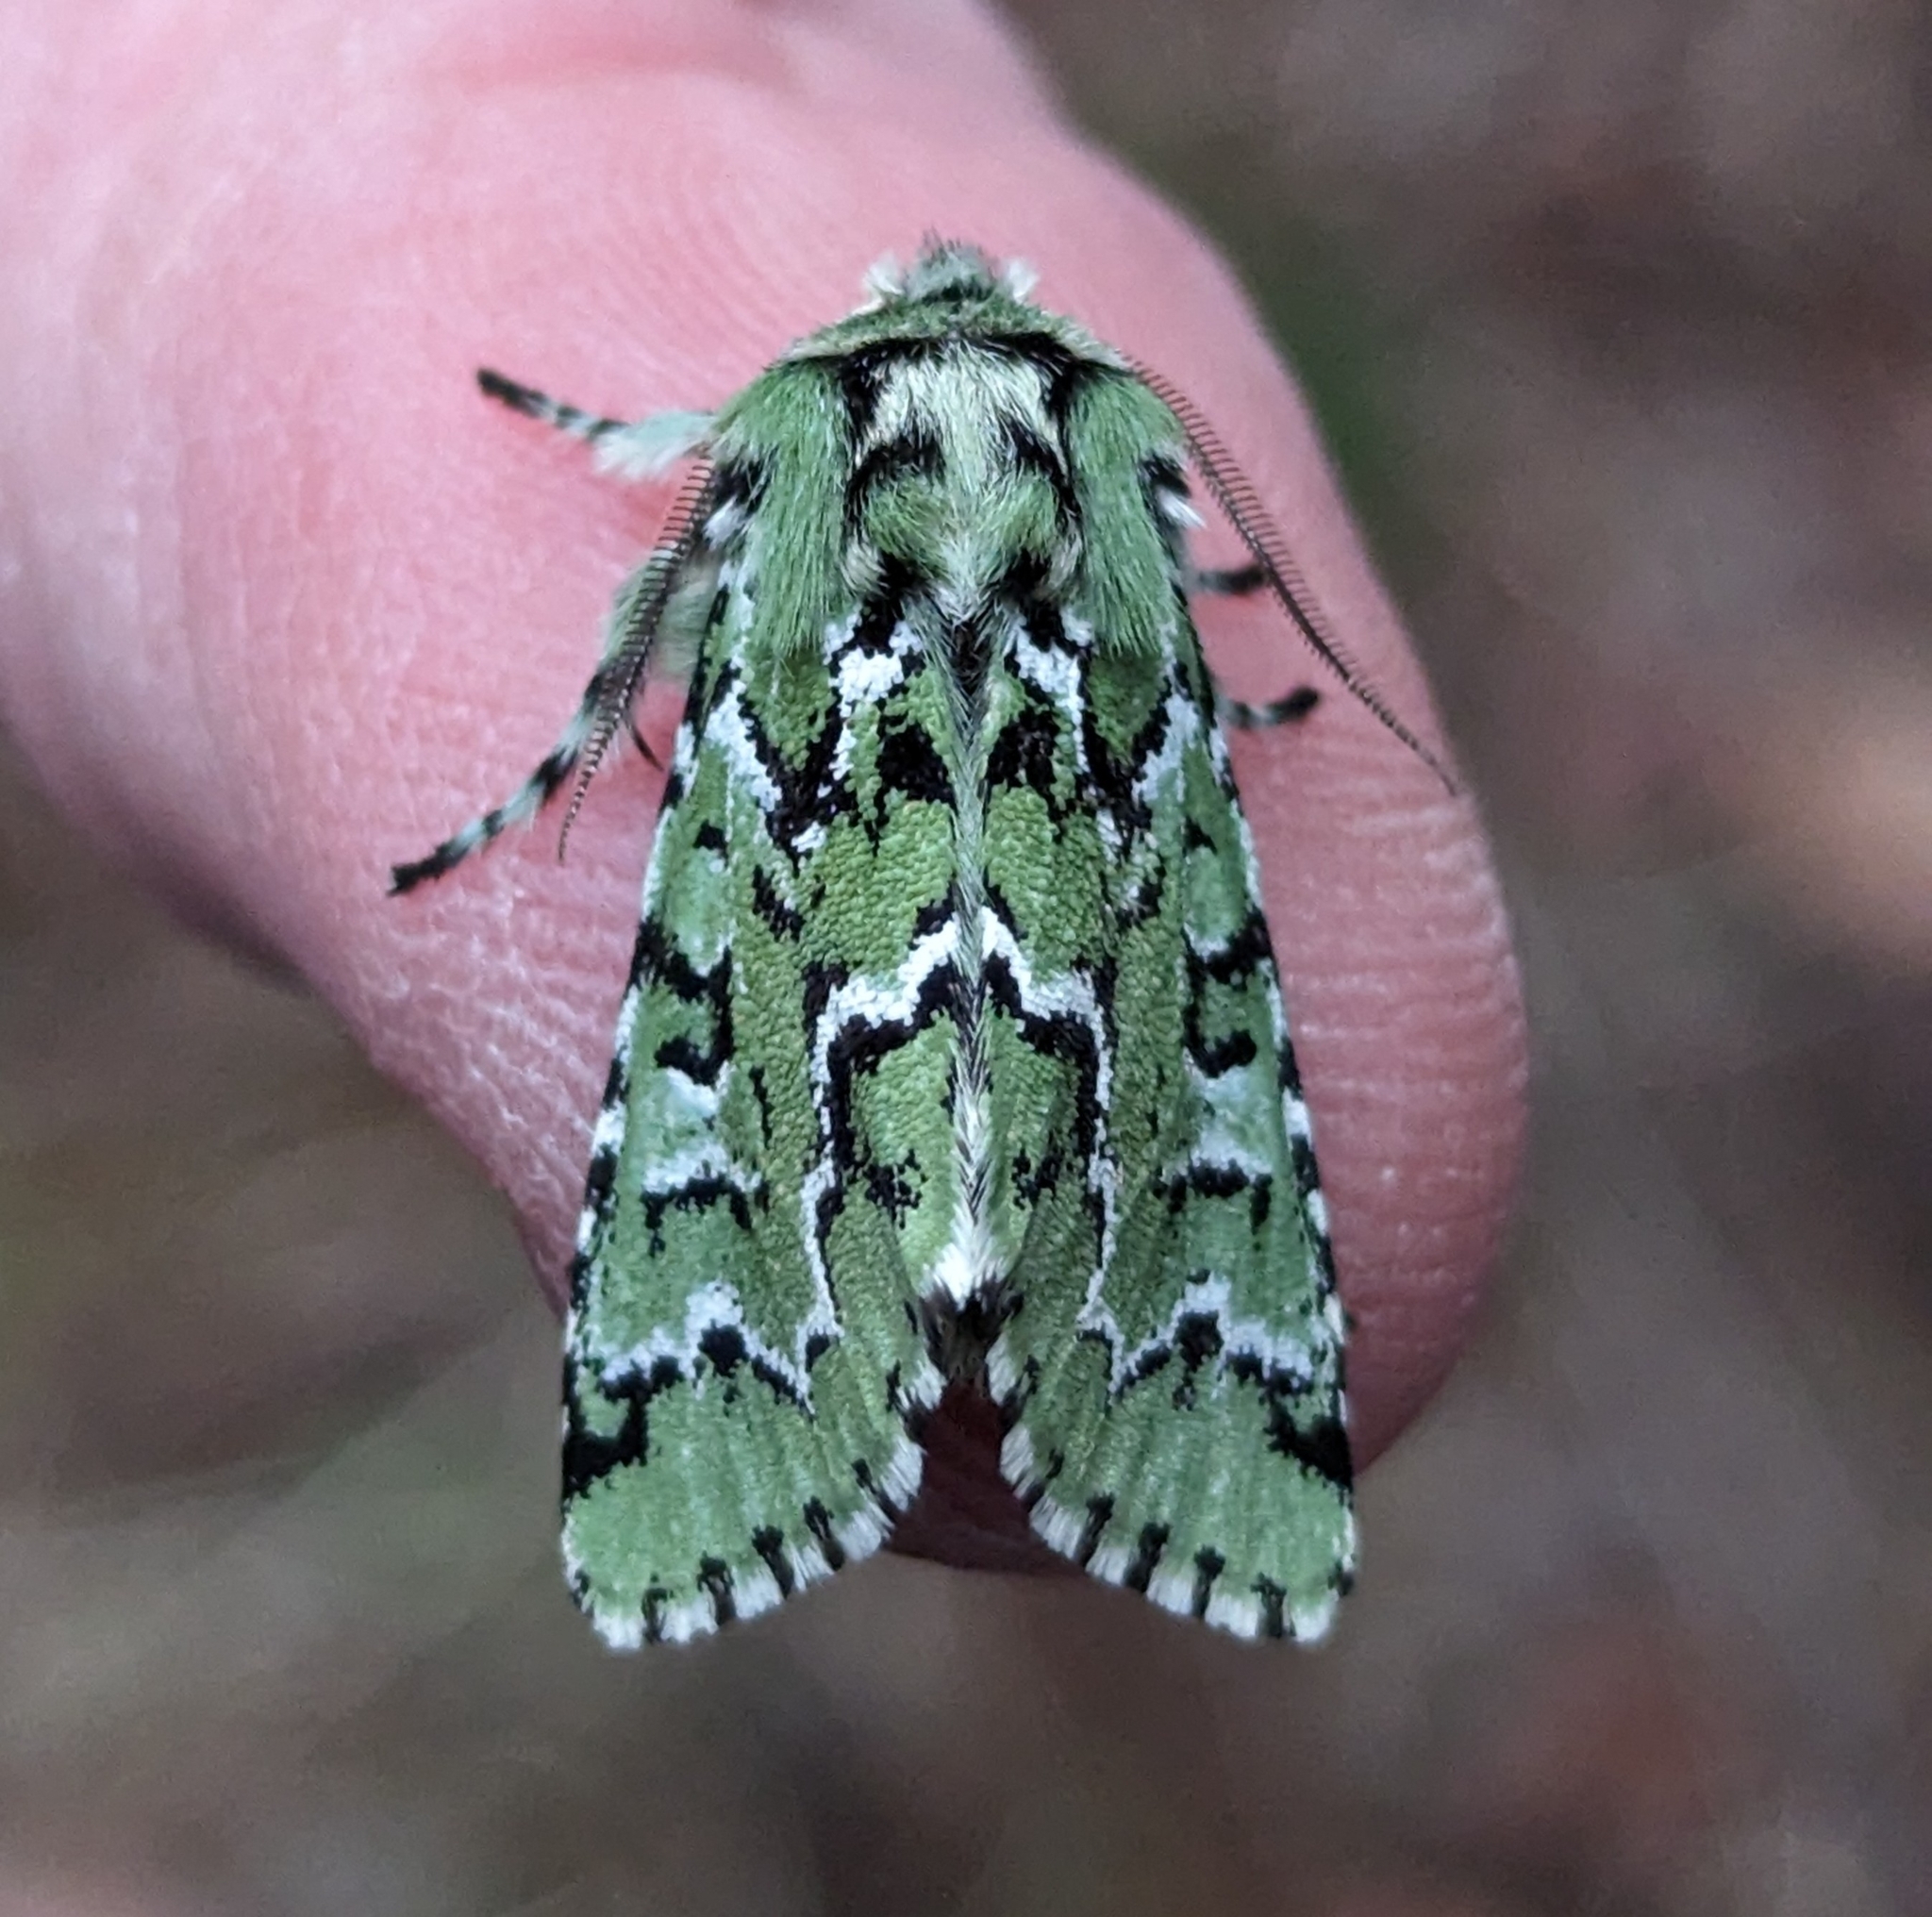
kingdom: Animalia
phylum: Arthropoda
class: Insecta
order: Lepidoptera
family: Noctuidae
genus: Feralia
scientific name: Feralia deceptiva
